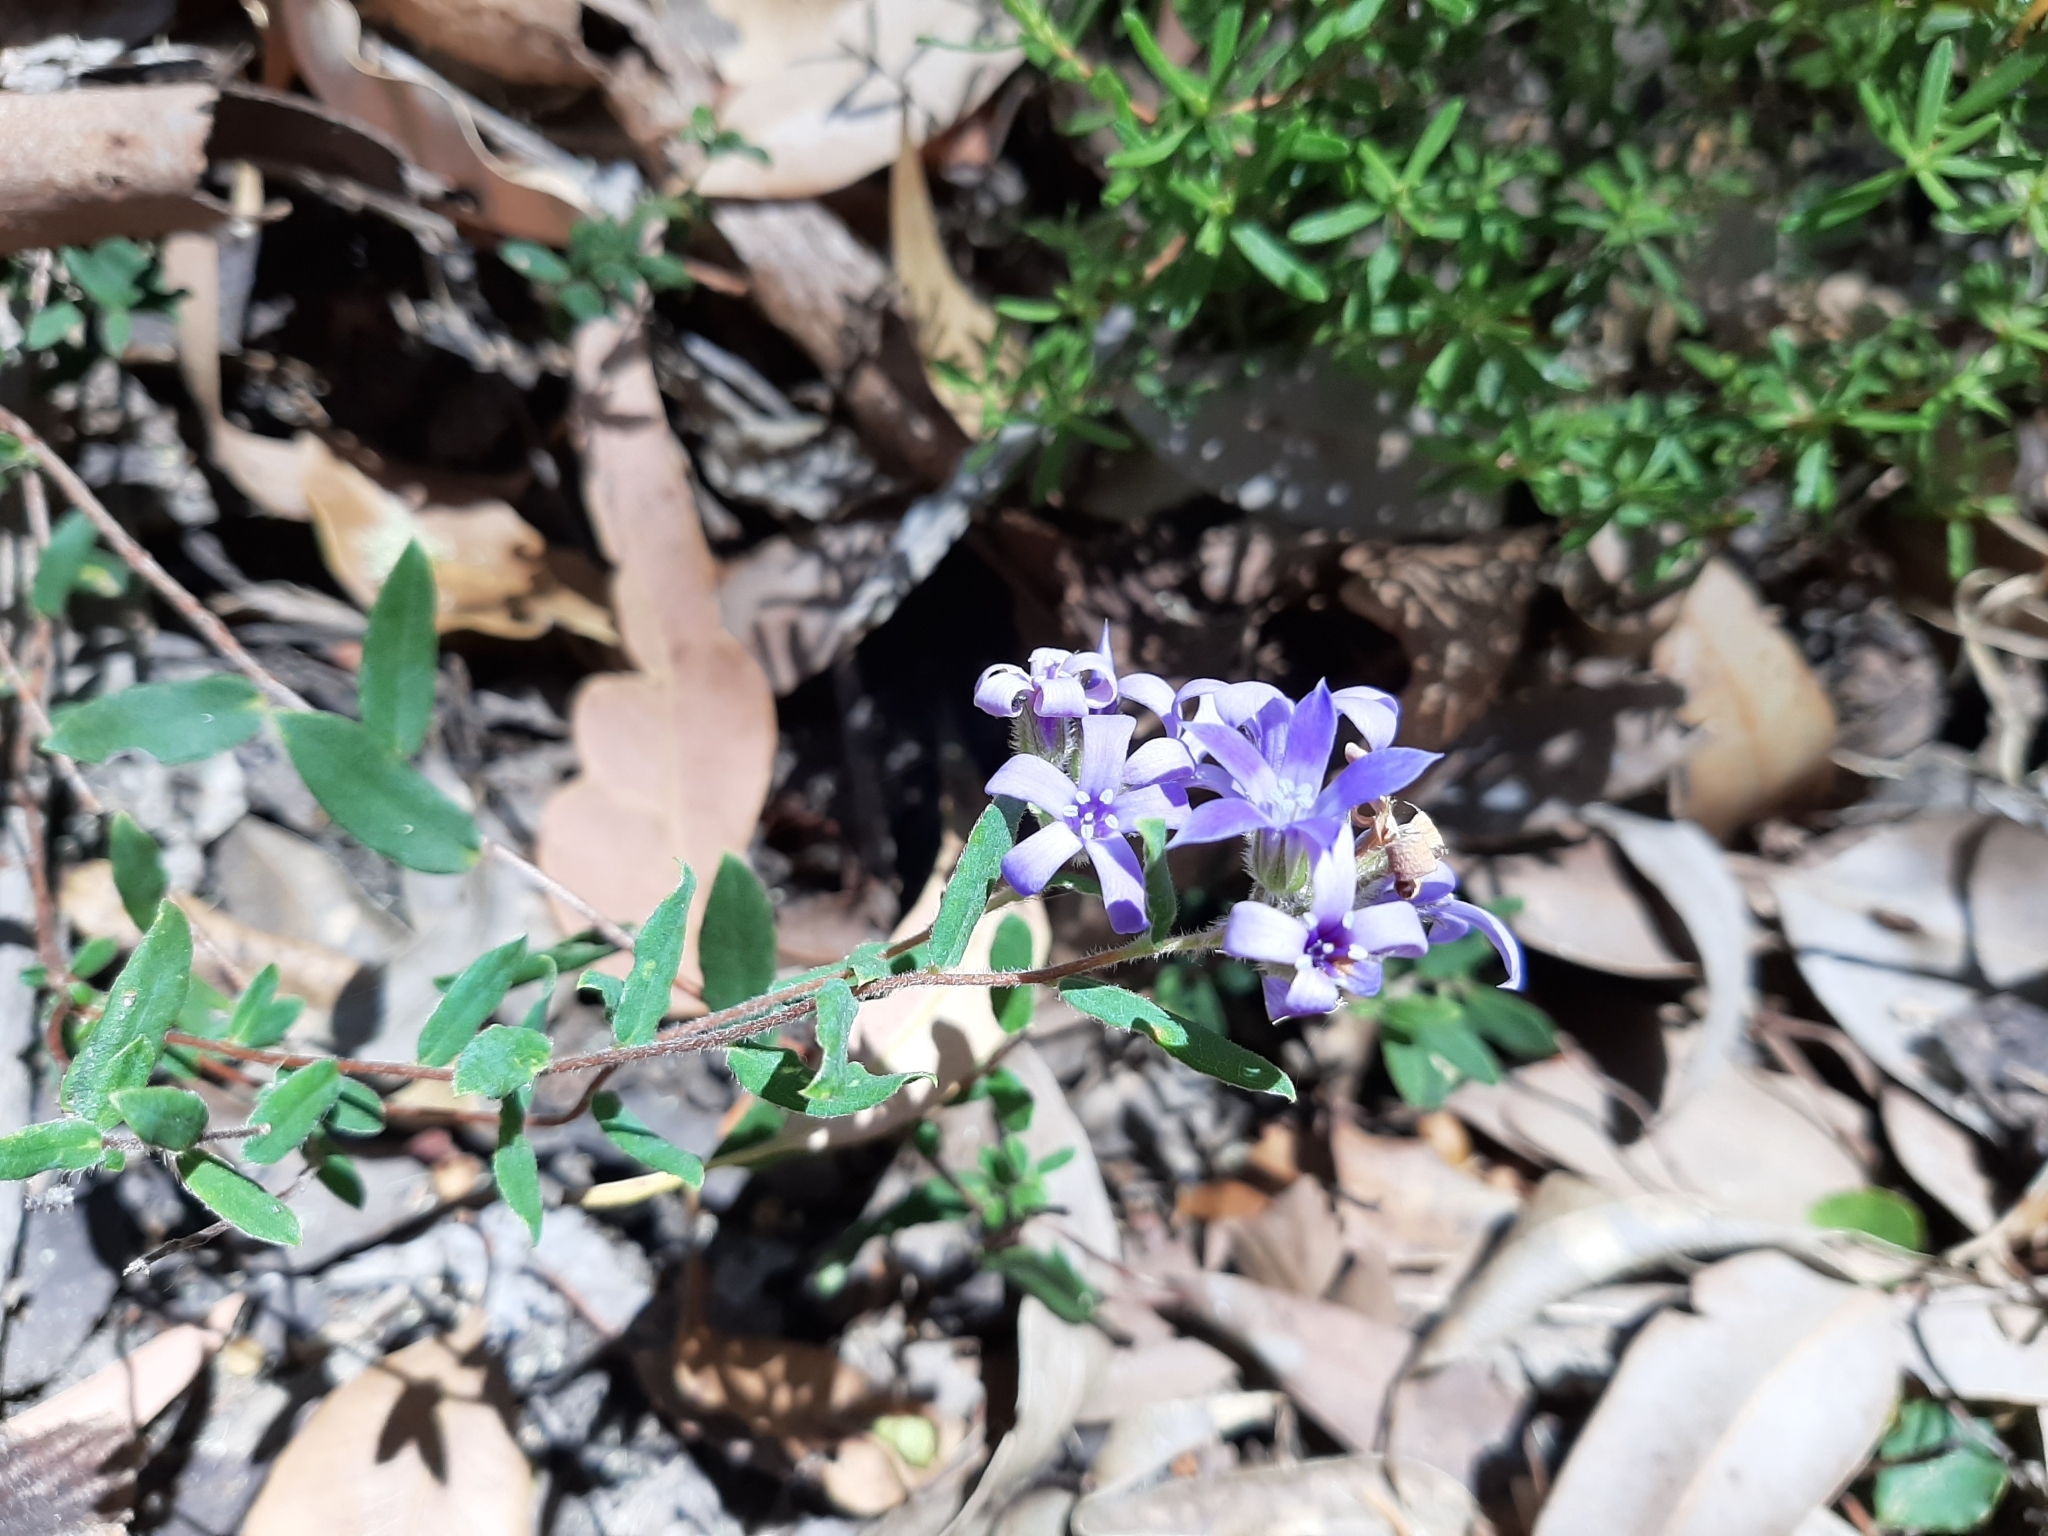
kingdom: Plantae
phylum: Tracheophyta
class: Magnoliopsida
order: Apiales
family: Pittosporaceae
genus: Billardiera
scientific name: Billardiera variifolia
